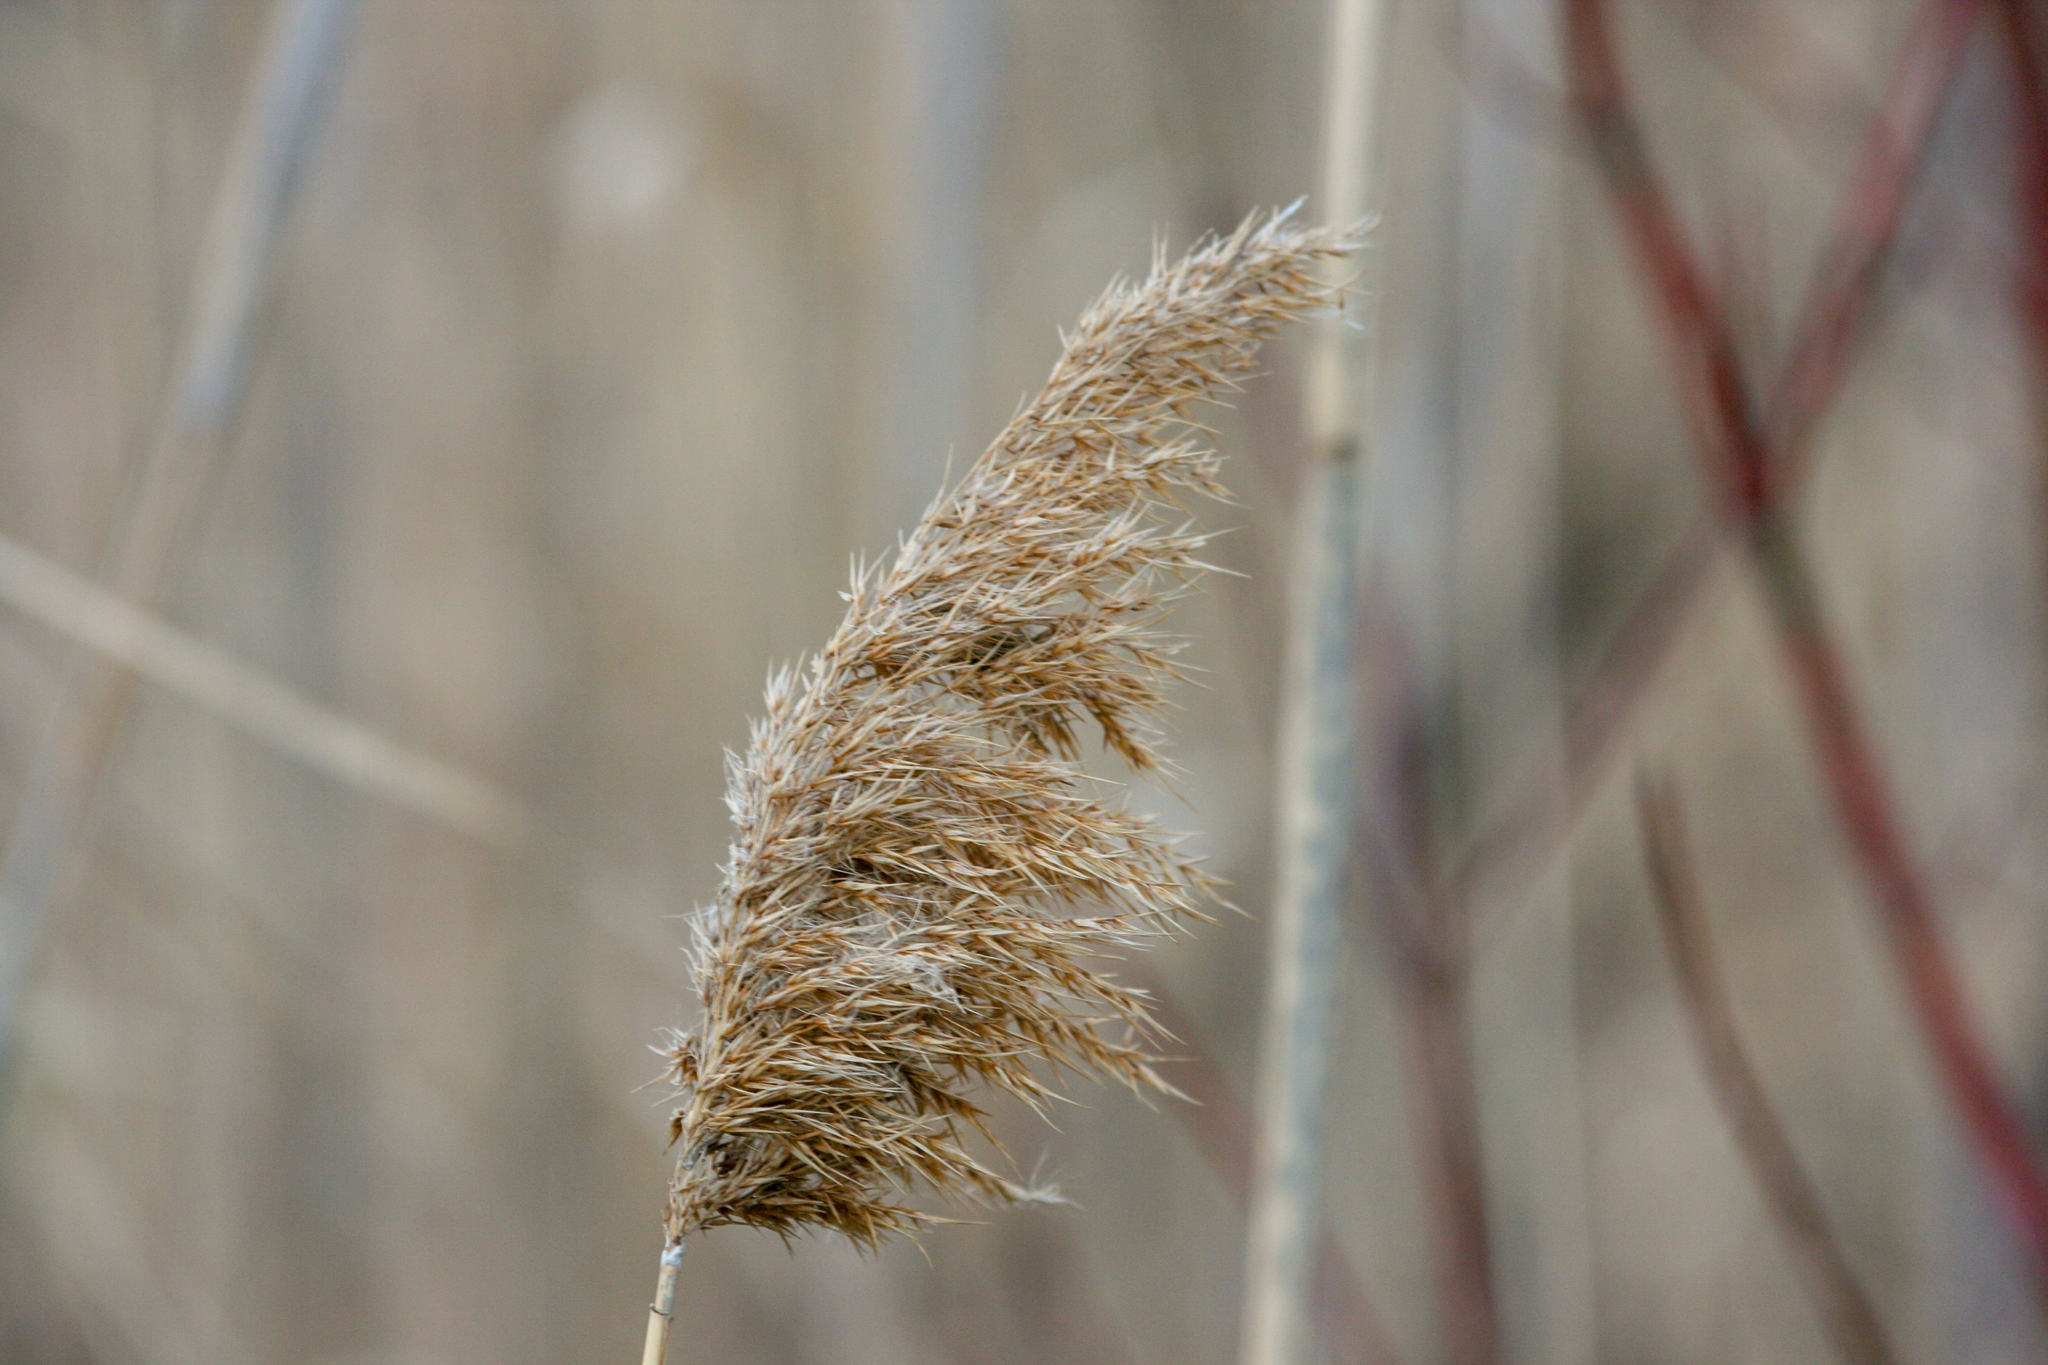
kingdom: Plantae
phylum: Tracheophyta
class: Liliopsida
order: Poales
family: Poaceae
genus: Phragmites
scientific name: Phragmites australis
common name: Common reed
